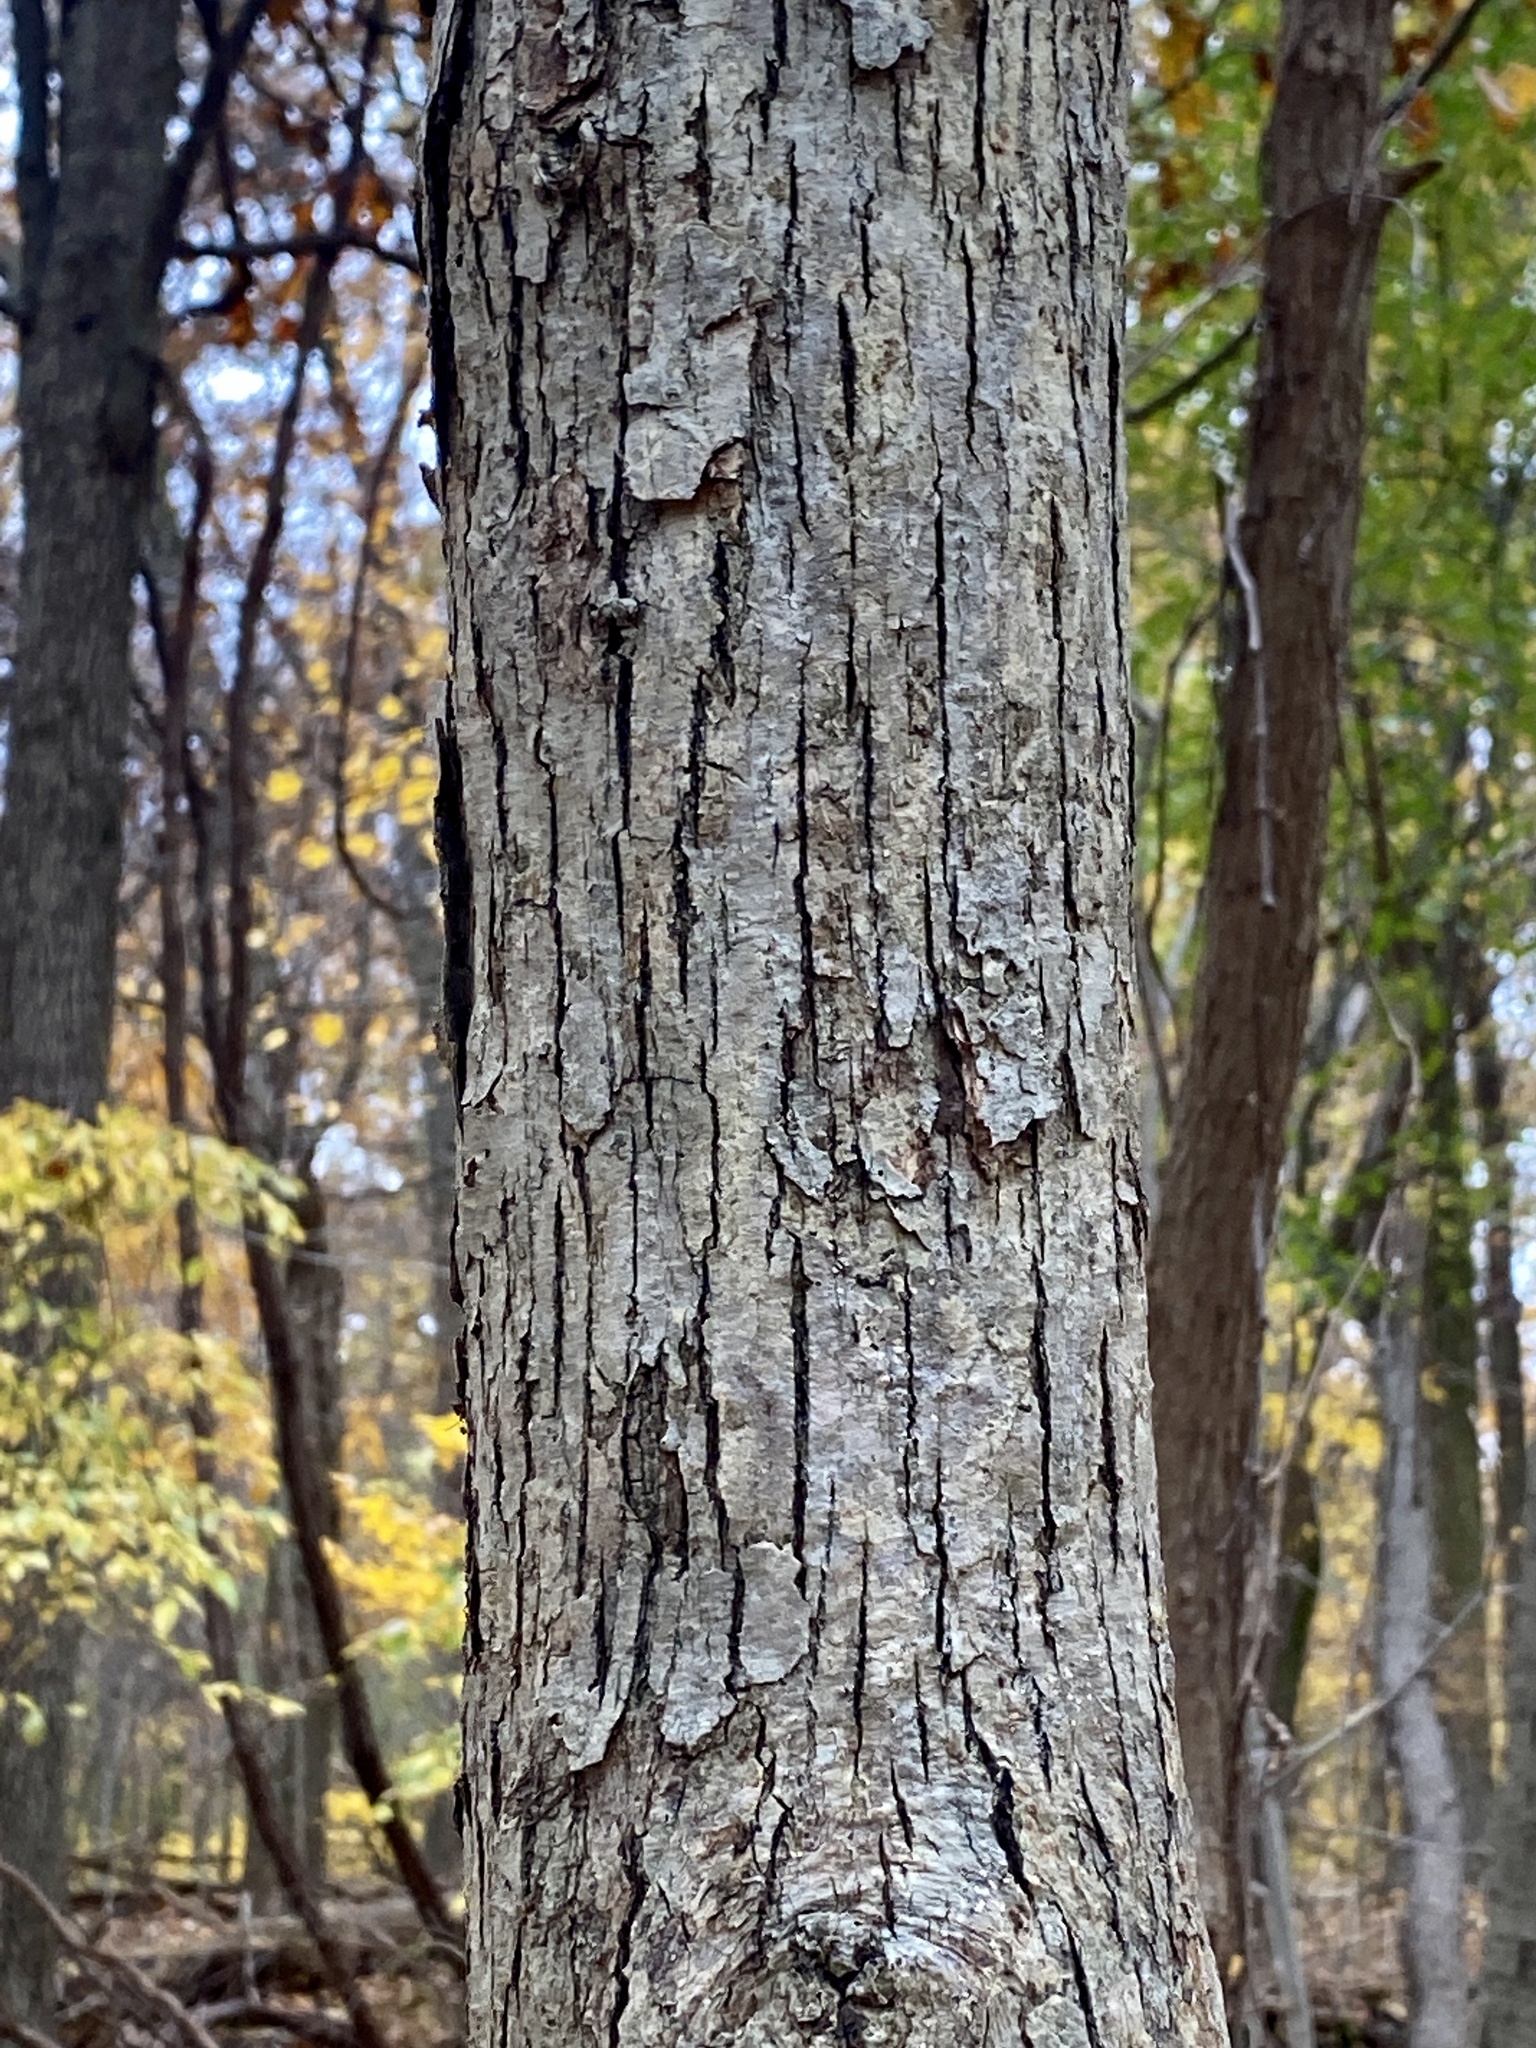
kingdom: Plantae
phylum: Tracheophyta
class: Magnoliopsida
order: Fagales
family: Fagaceae
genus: Quercus
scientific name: Quercus alba
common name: White oak
